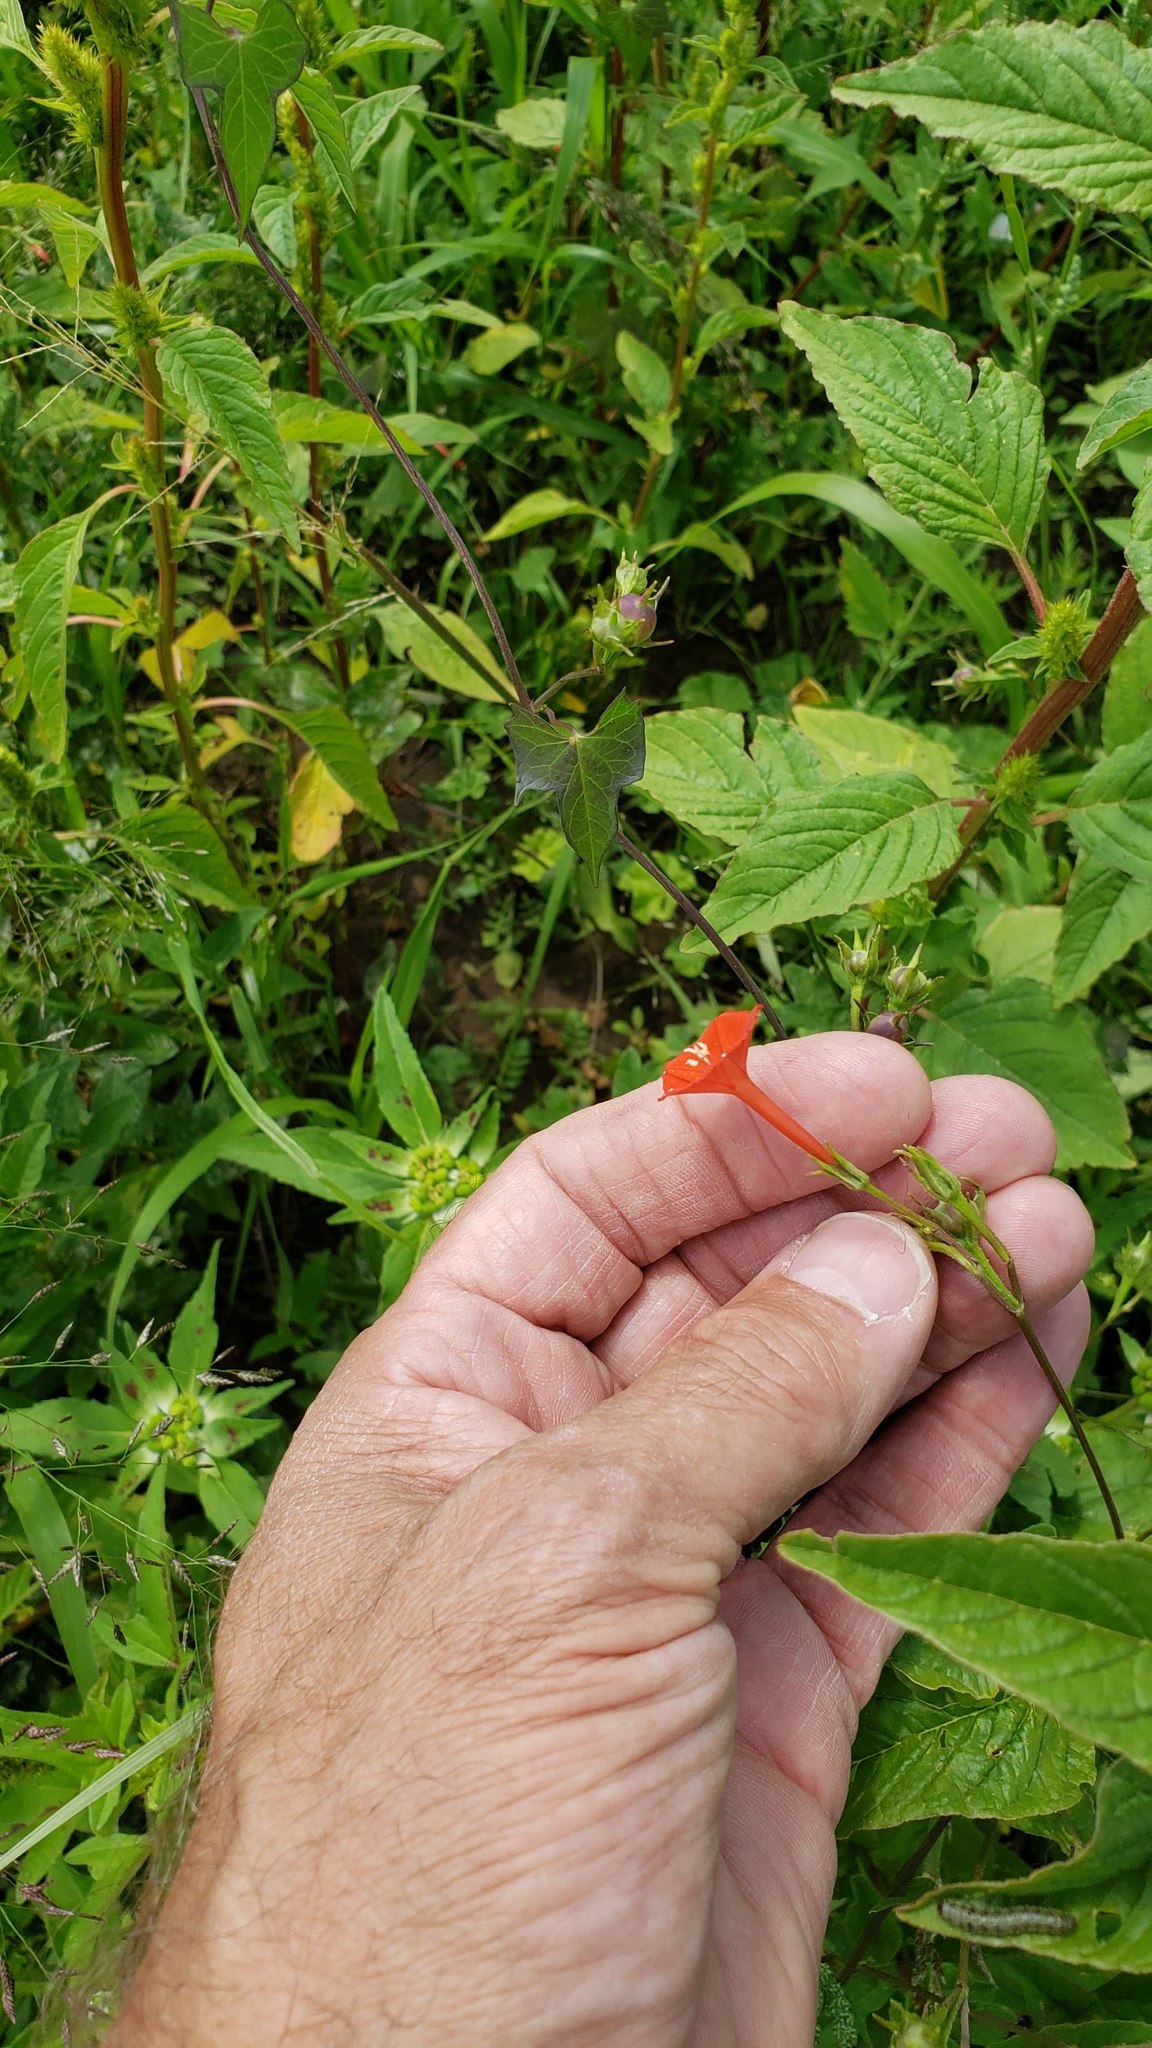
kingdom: Plantae
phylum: Tracheophyta
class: Magnoliopsida
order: Solanales
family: Convolvulaceae
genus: Ipomoea
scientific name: Ipomoea cristulata
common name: Trans-pecos morning-glory
